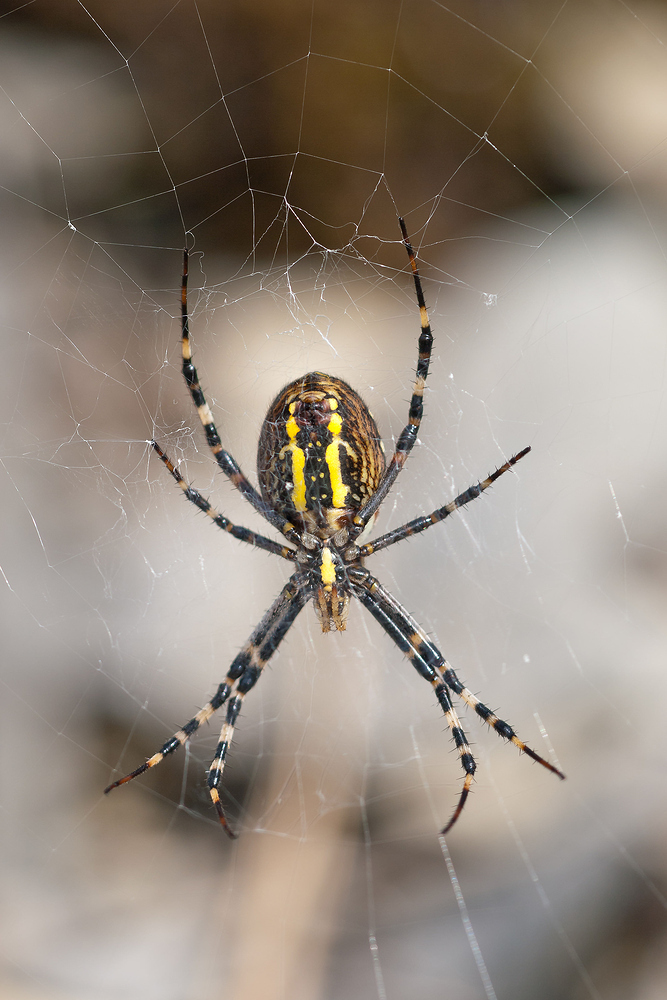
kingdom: Animalia
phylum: Arthropoda
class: Arachnida
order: Araneae
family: Araneidae
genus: Argiope
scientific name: Argiope bruennichi
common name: Wasp spider
